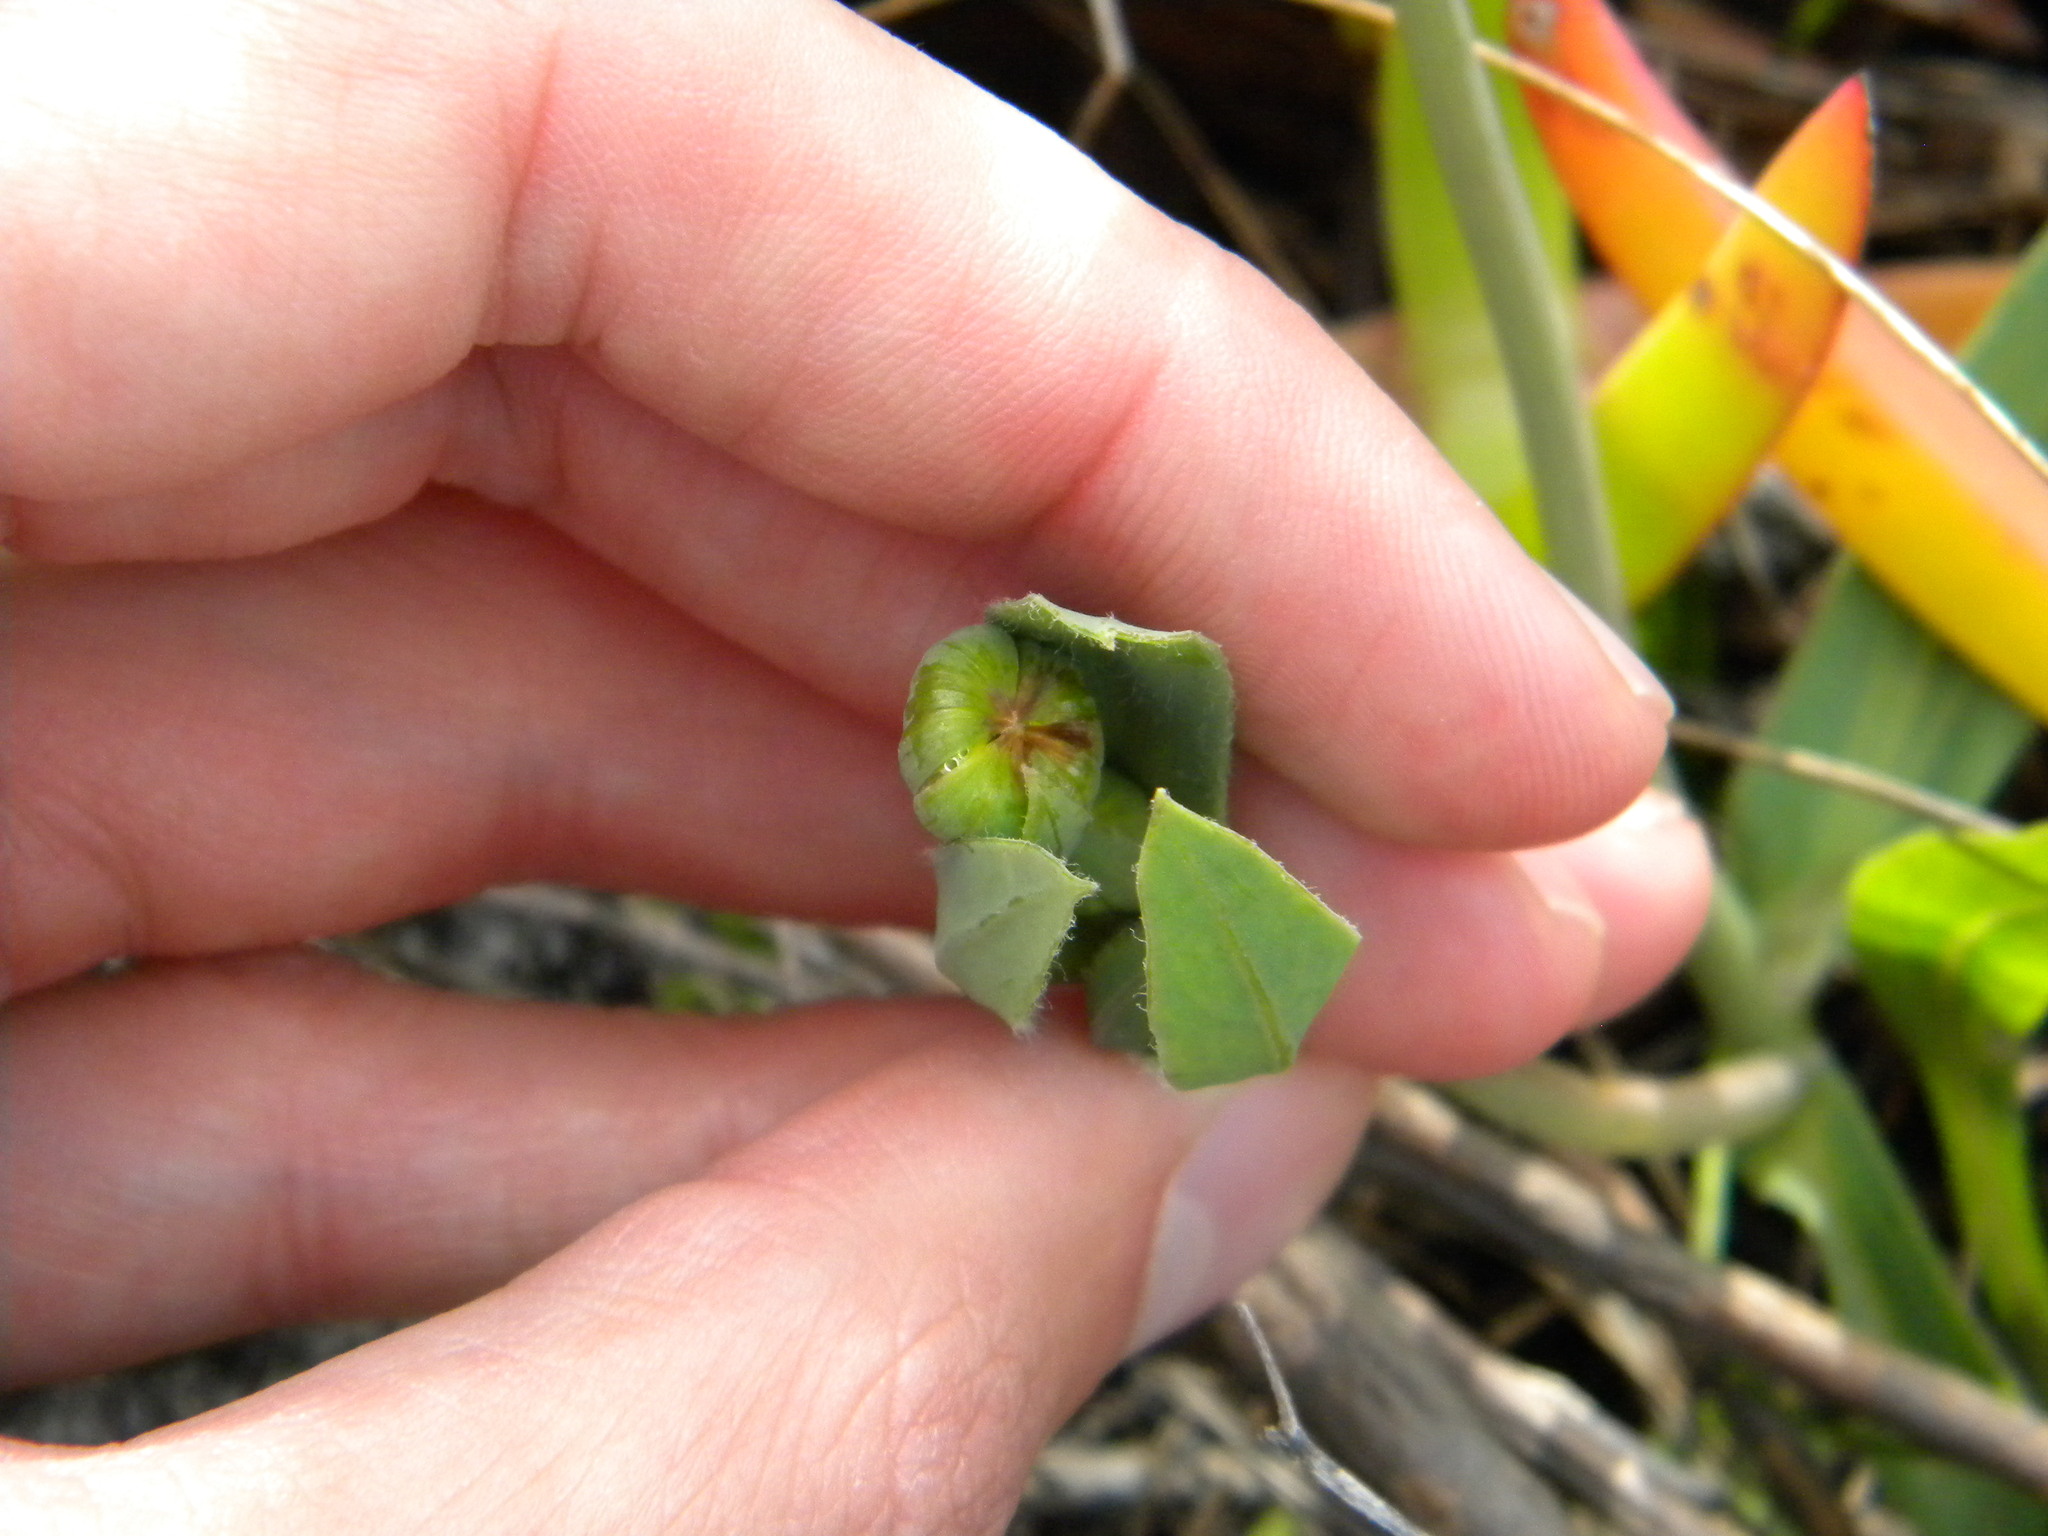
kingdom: Plantae
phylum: Tracheophyta
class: Magnoliopsida
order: Asterales
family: Asteraceae
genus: Othonna
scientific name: Othonna bulbosa
